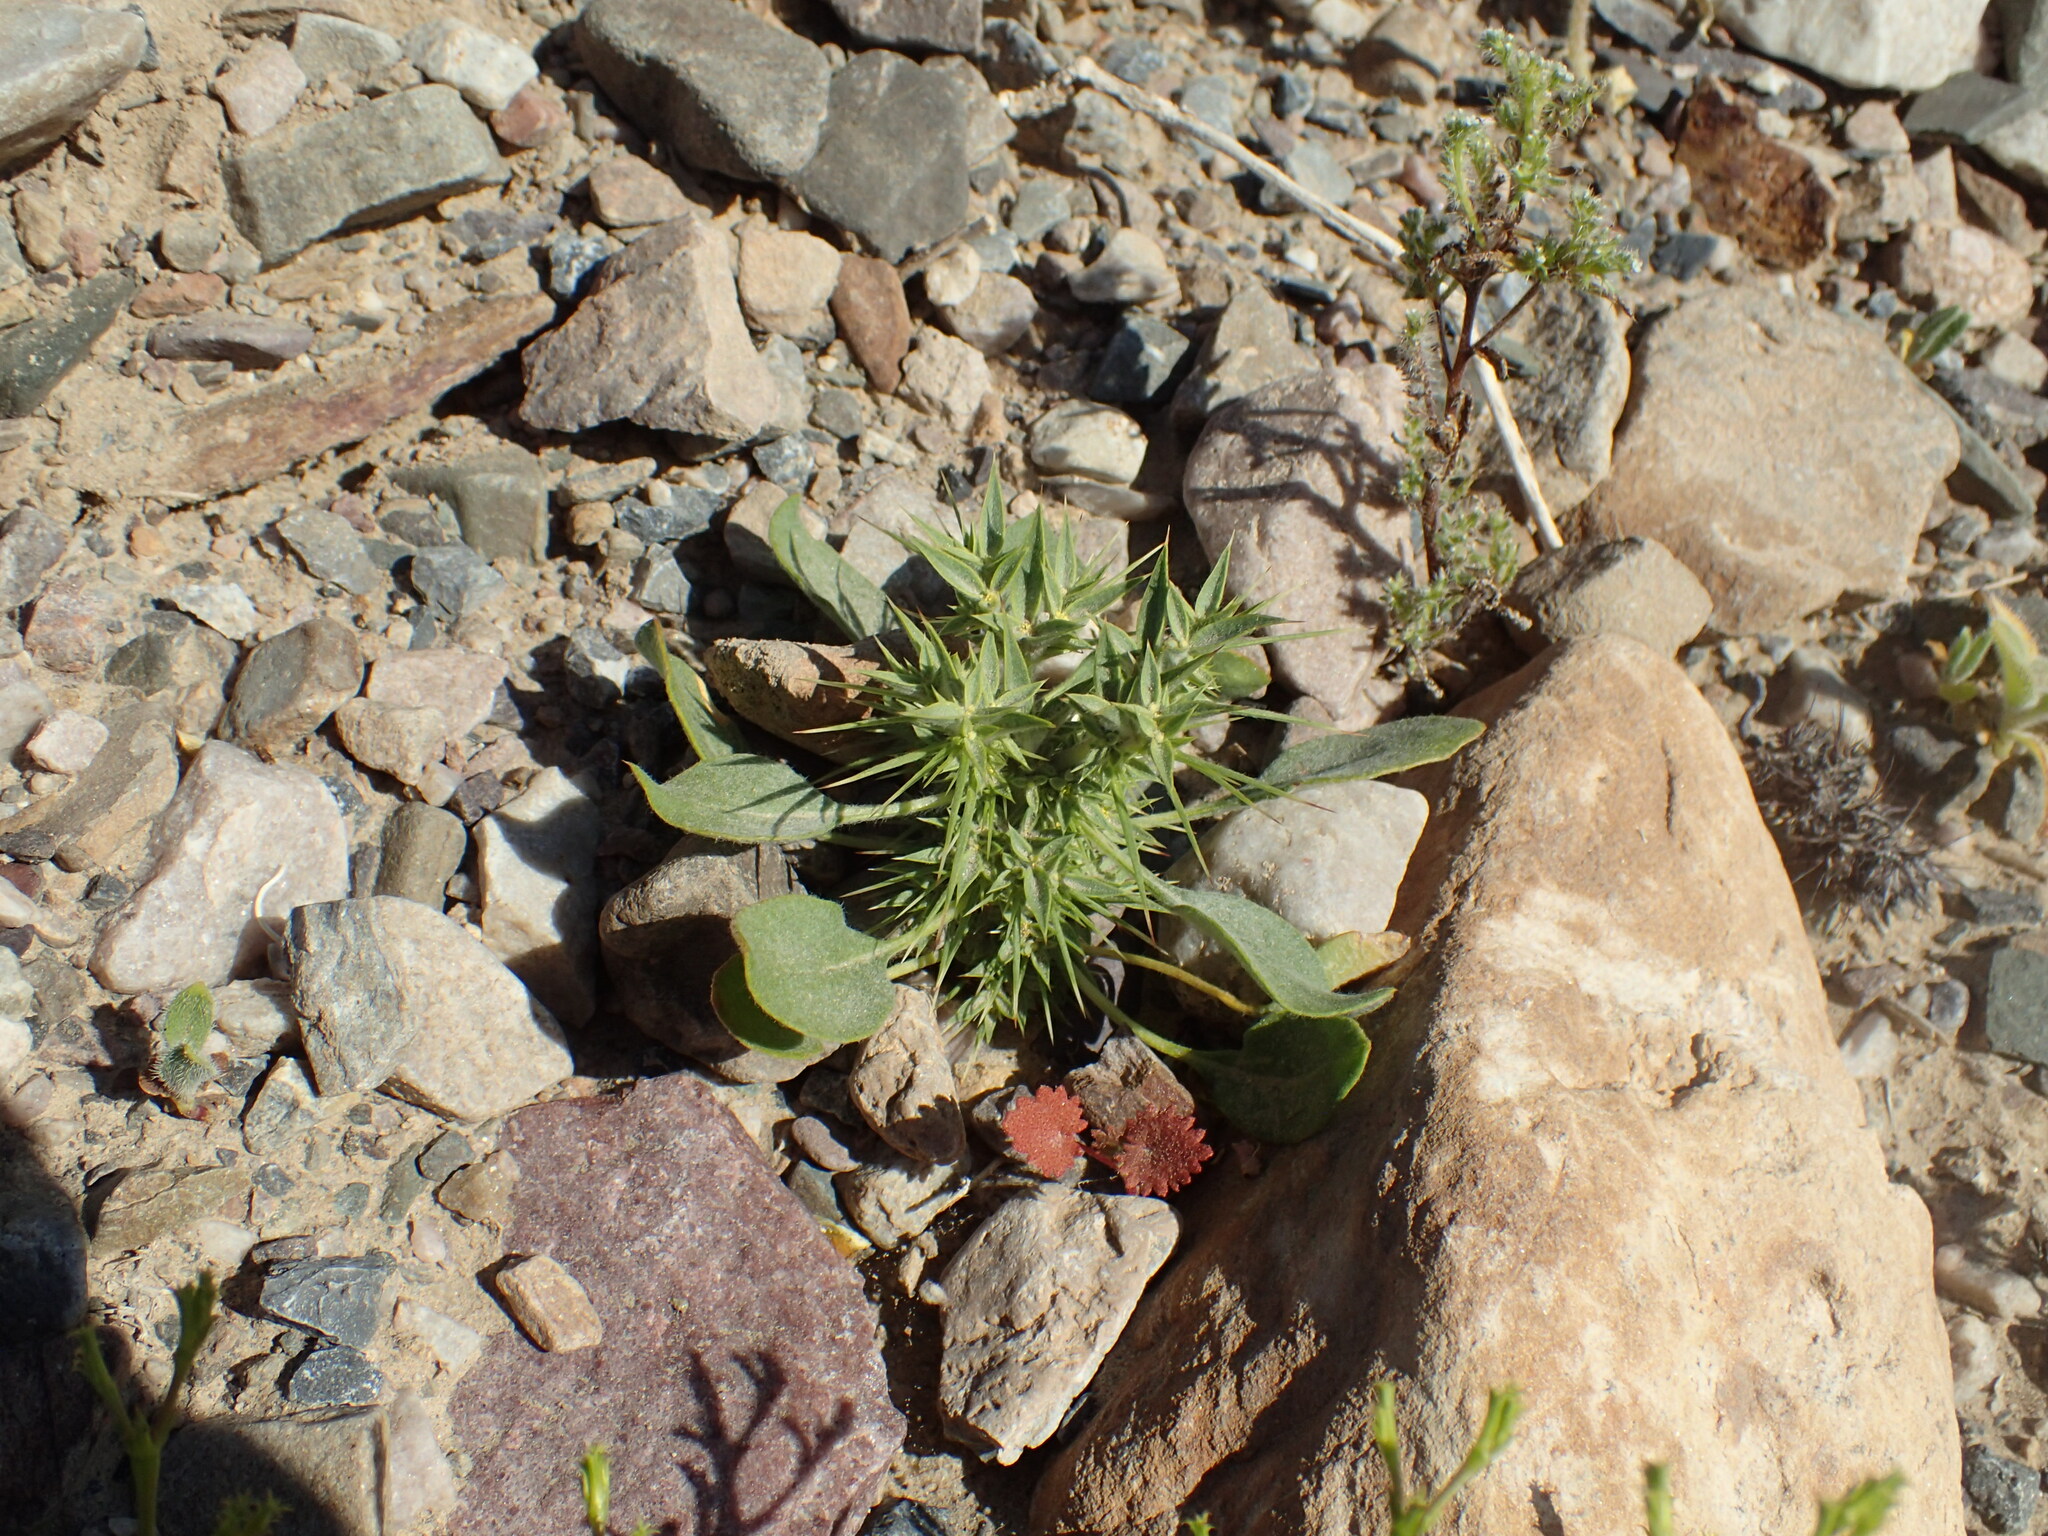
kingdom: Plantae
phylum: Tracheophyta
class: Magnoliopsida
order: Caryophyllales
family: Polygonaceae
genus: Chorizanthe
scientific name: Chorizanthe rigida
